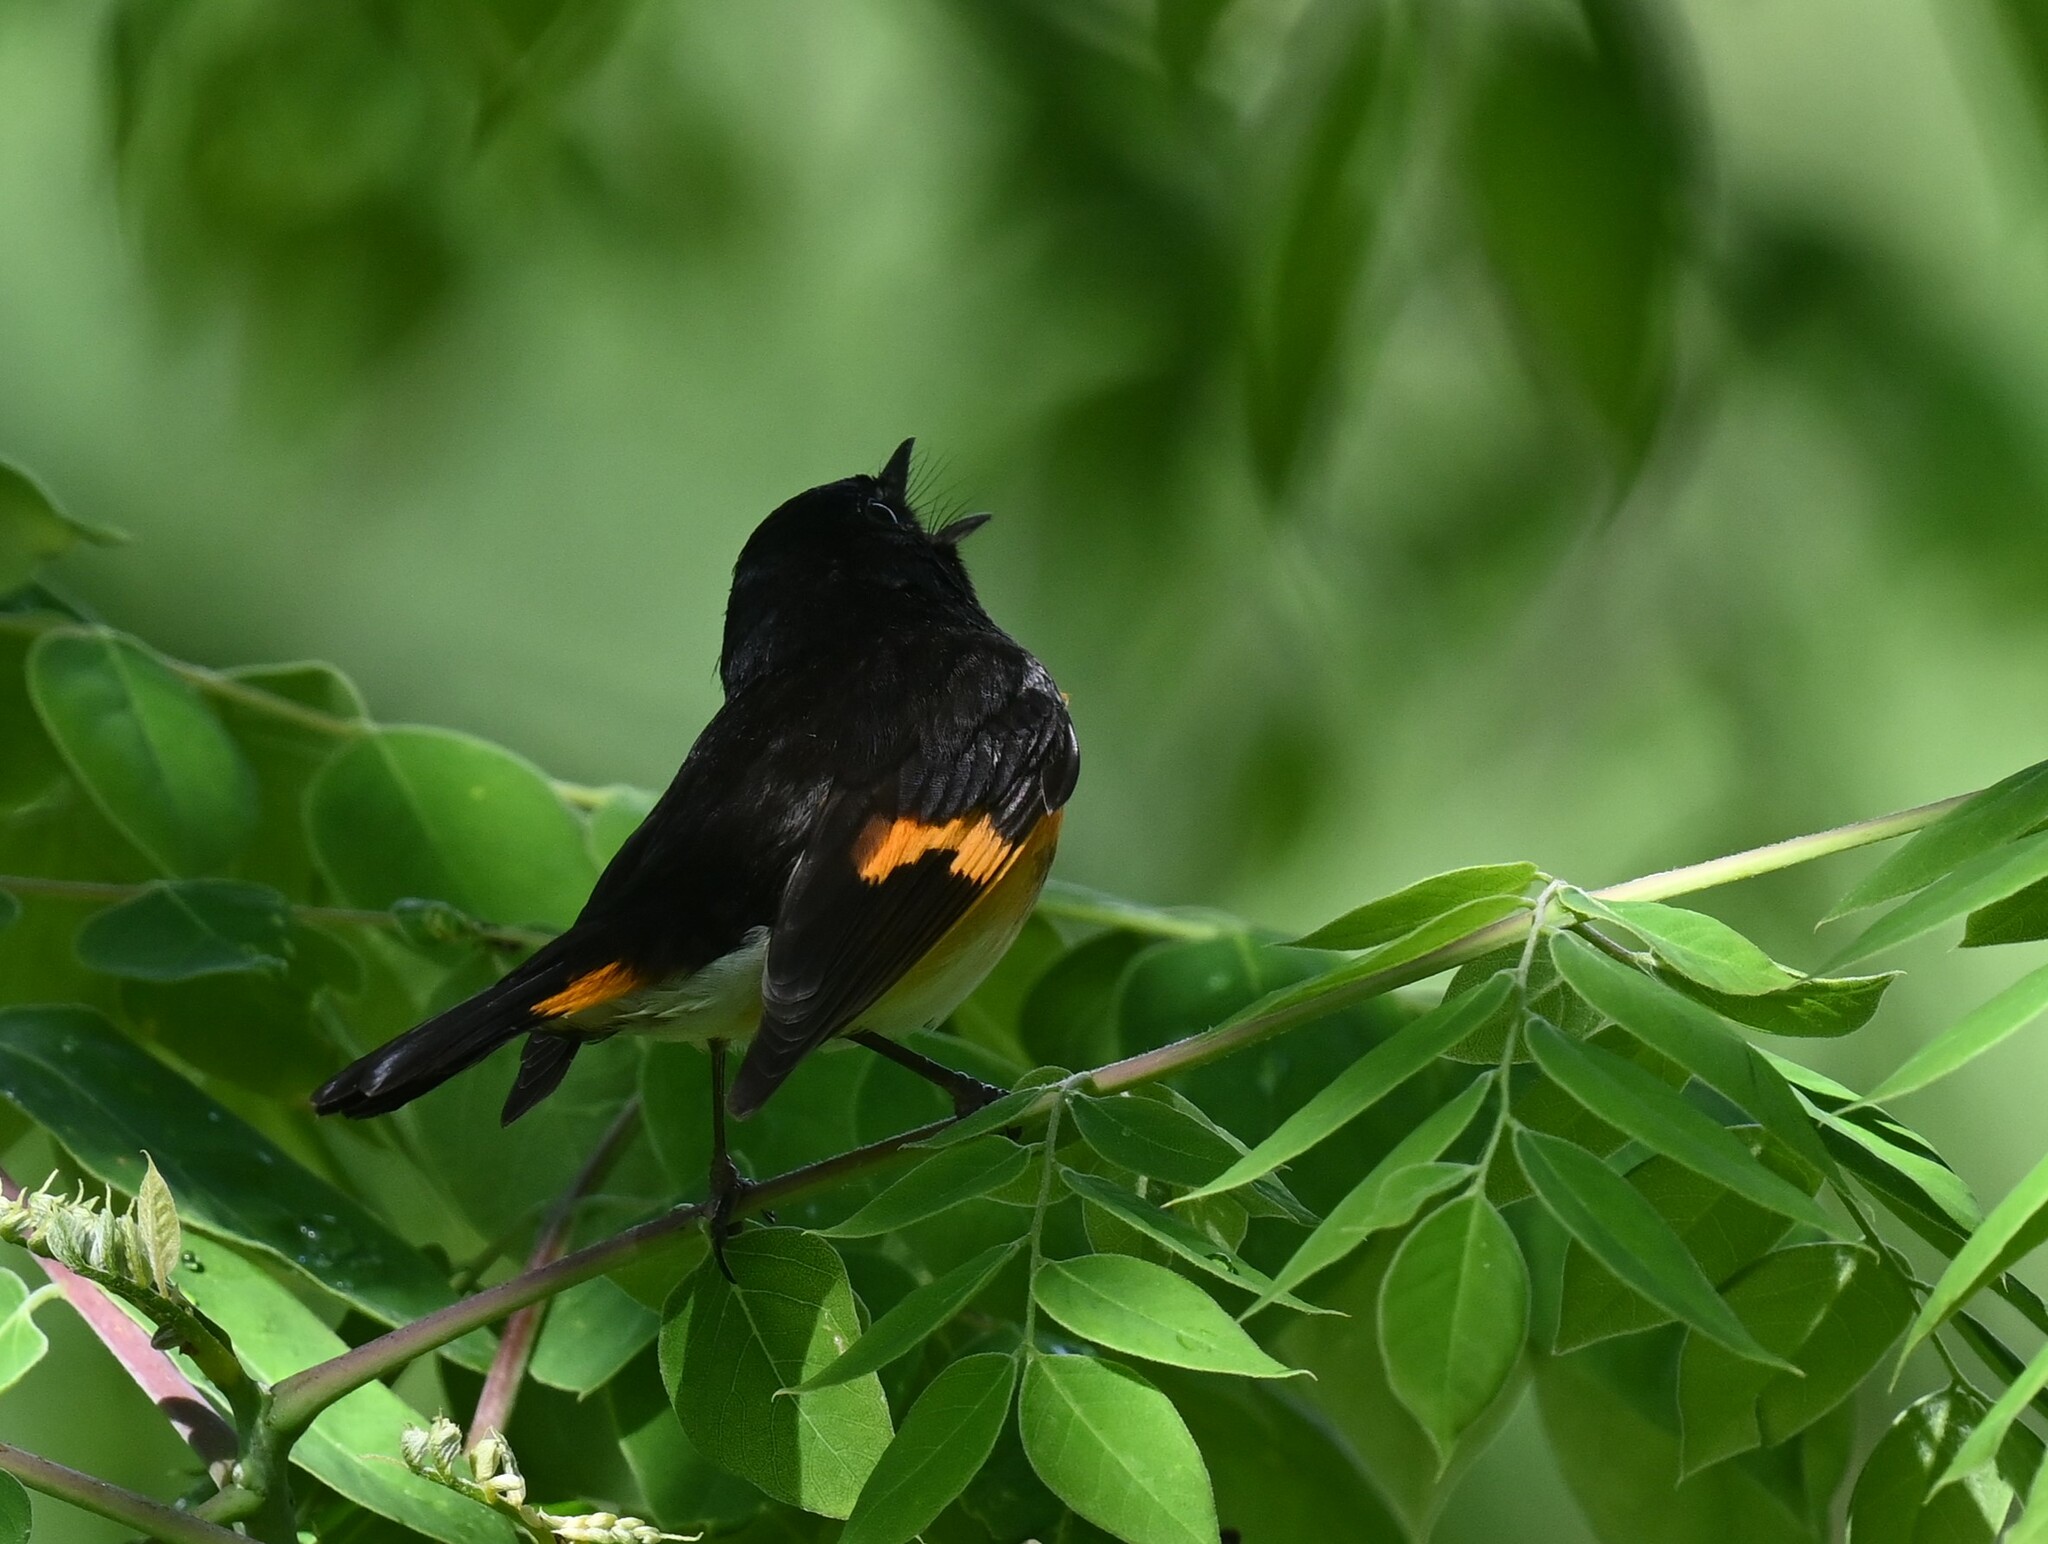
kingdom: Animalia
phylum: Chordata
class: Aves
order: Passeriformes
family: Parulidae
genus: Setophaga
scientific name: Setophaga ruticilla
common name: American redstart
